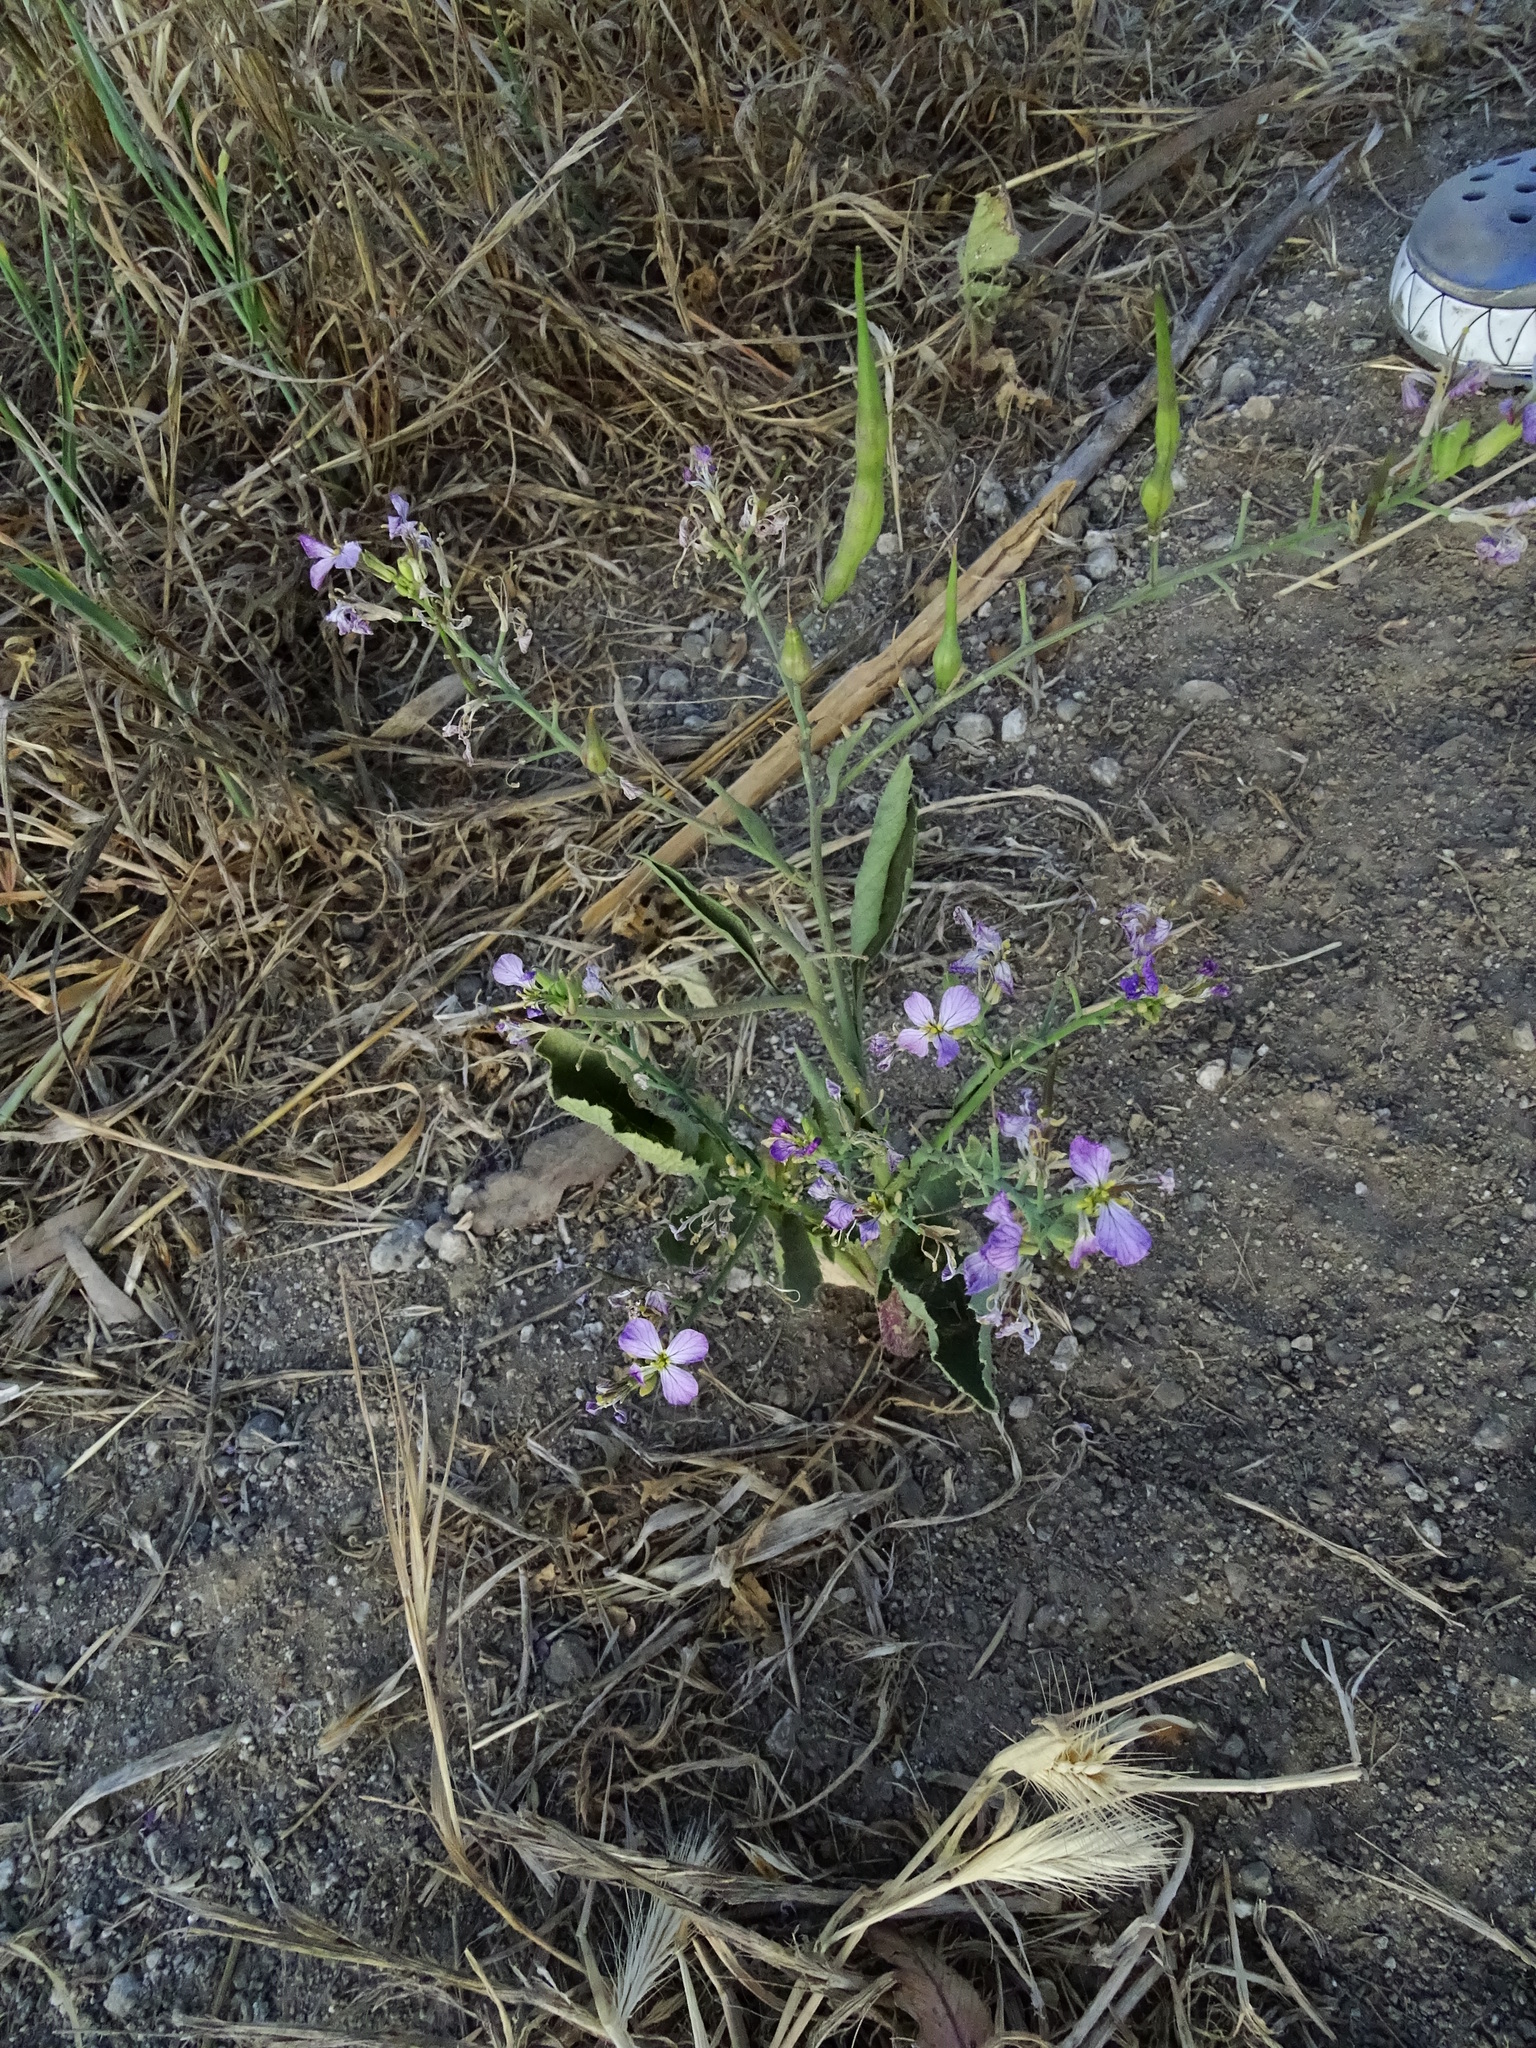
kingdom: Plantae
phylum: Tracheophyta
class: Magnoliopsida
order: Brassicales
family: Brassicaceae
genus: Raphanus
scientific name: Raphanus sativus
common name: Cultivated radish
